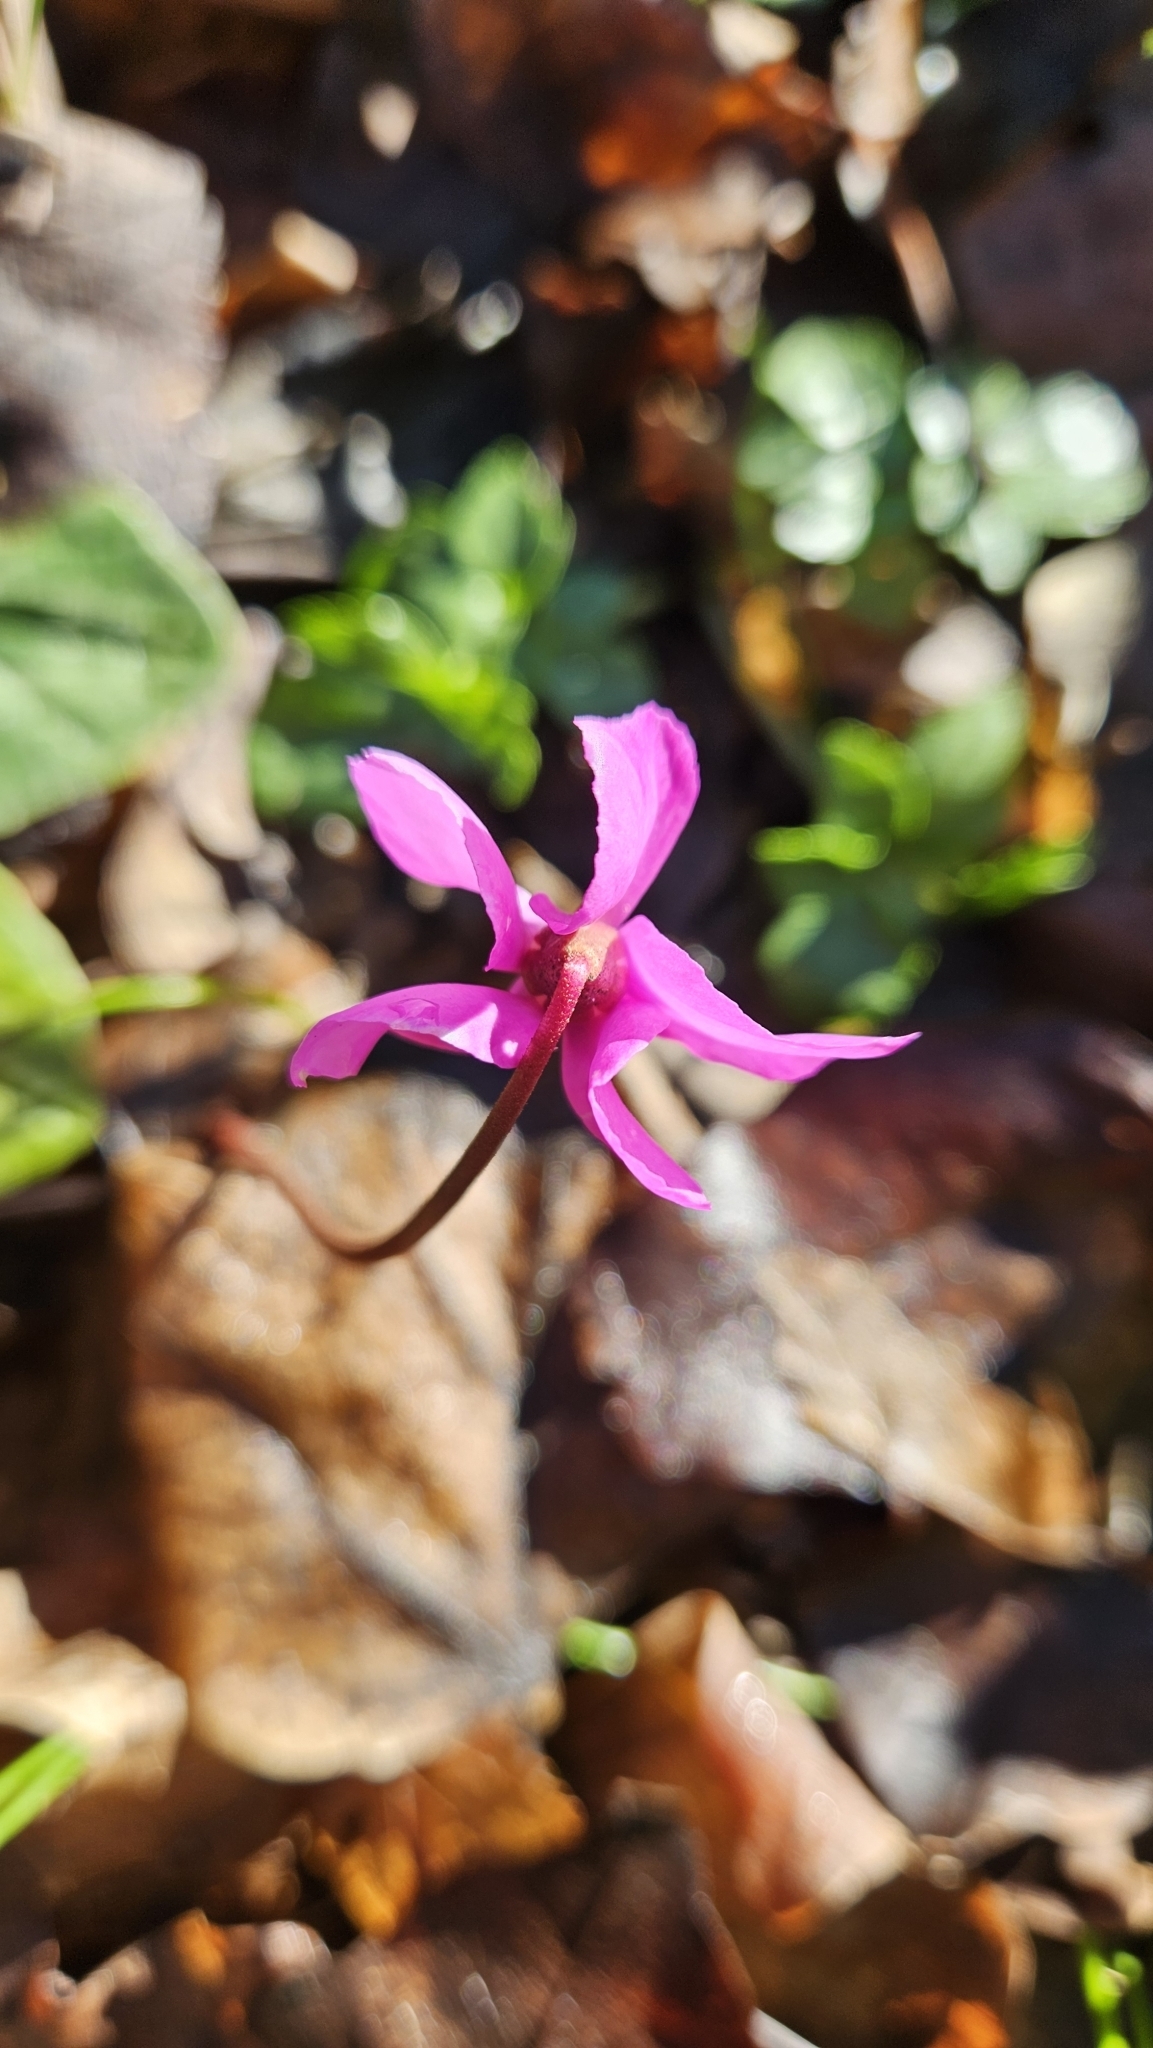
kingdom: Plantae
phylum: Tracheophyta
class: Magnoliopsida
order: Ericales
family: Primulaceae
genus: Cyclamen
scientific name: Cyclamen coum
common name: Eastern sowbread
